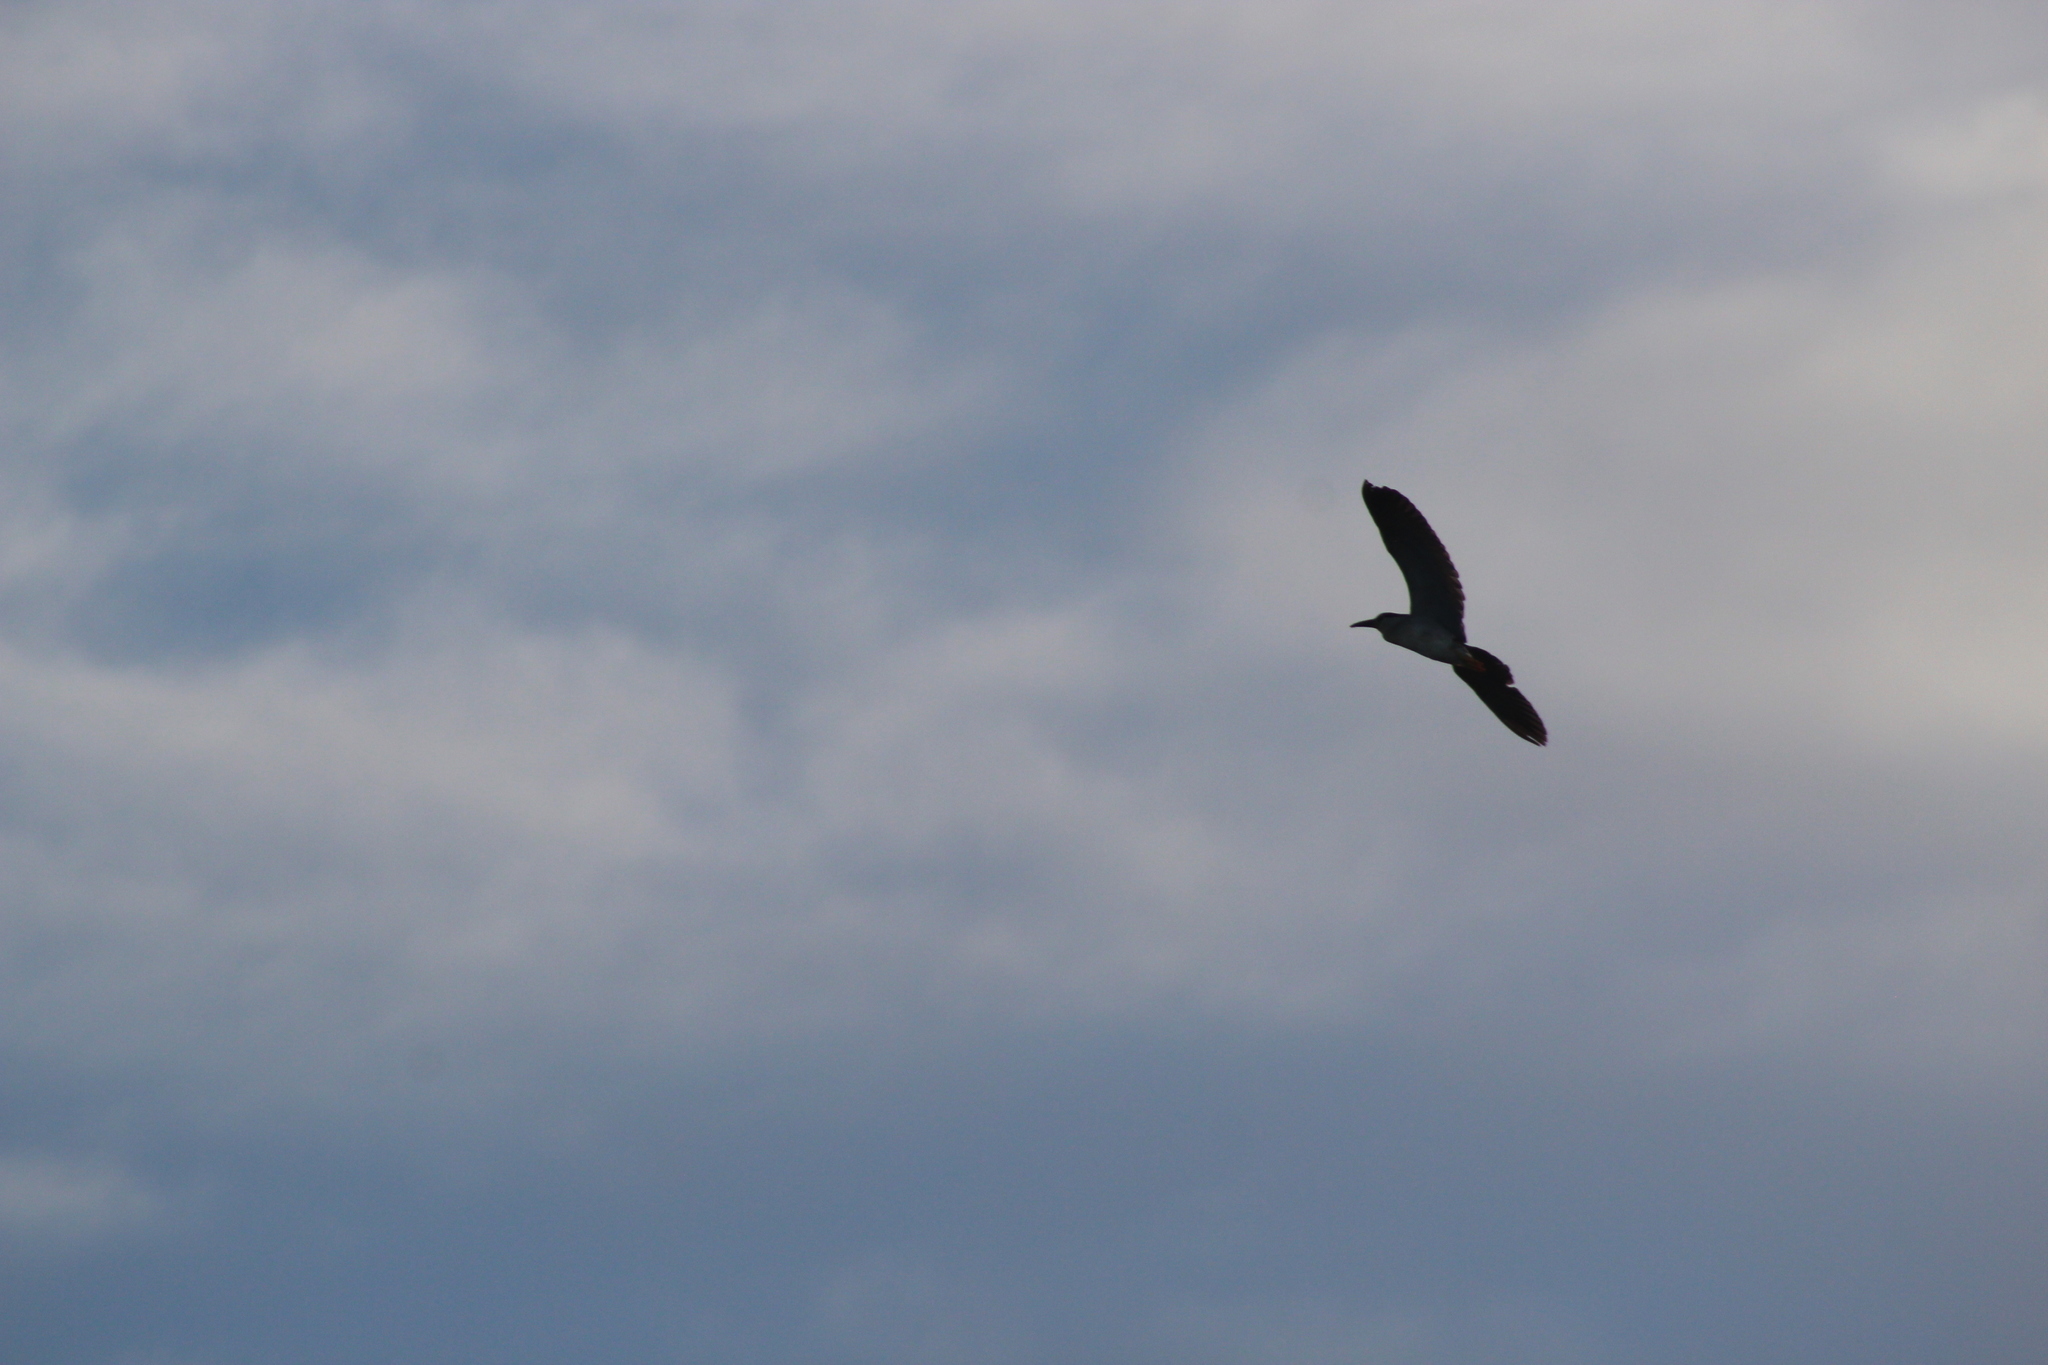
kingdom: Animalia
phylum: Chordata
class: Aves
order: Pelecaniformes
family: Ardeidae
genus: Nycticorax
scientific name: Nycticorax nycticorax
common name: Black-crowned night heron
